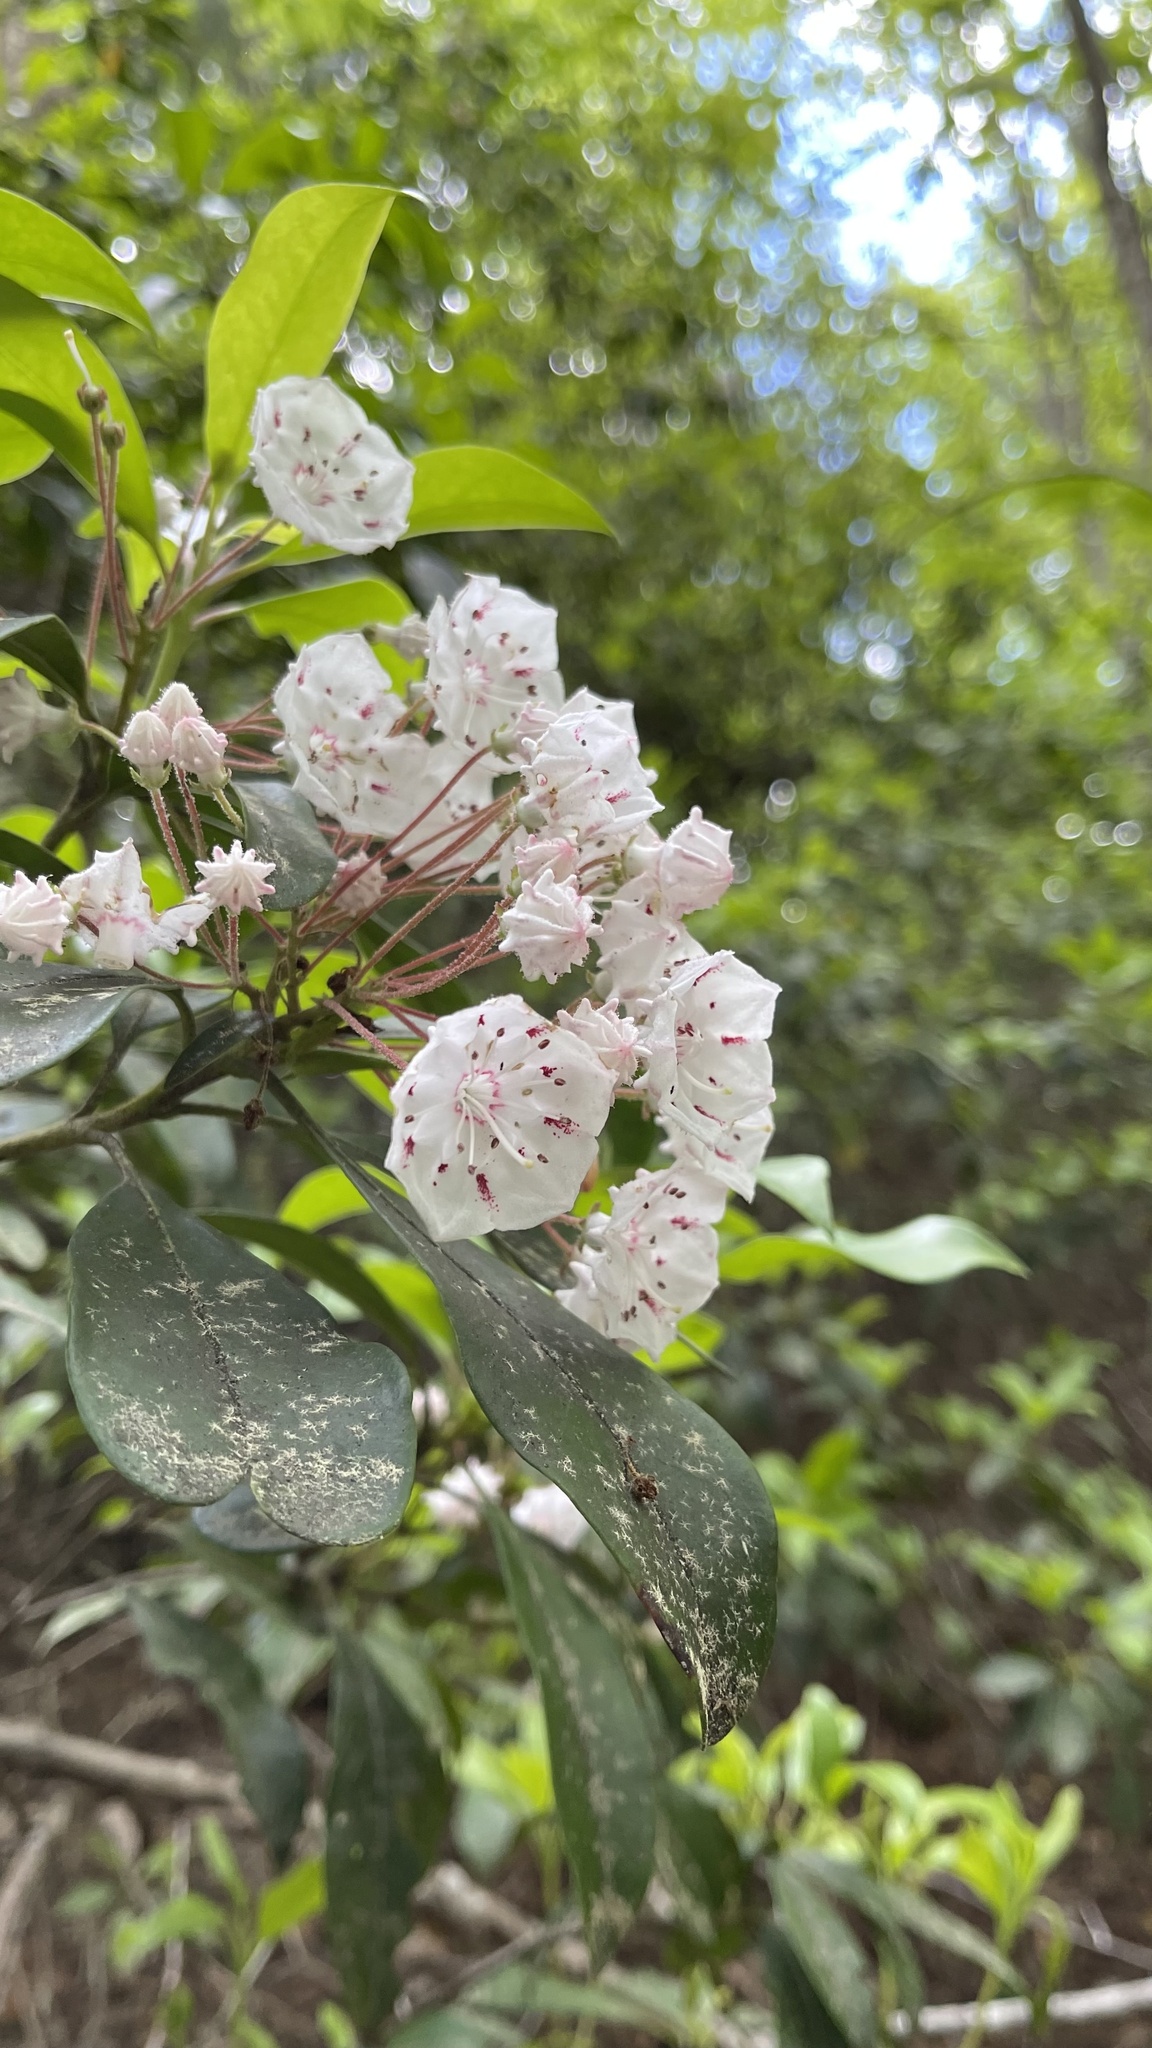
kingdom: Plantae
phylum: Tracheophyta
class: Magnoliopsida
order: Ericales
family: Ericaceae
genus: Kalmia
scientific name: Kalmia latifolia
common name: Mountain-laurel
